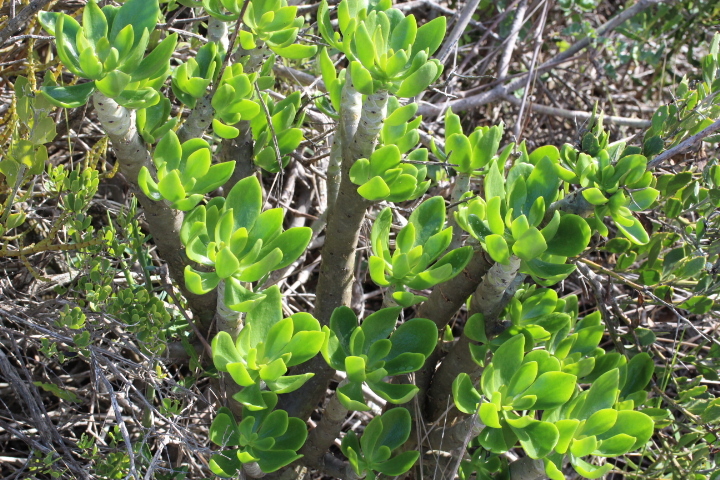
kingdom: Plantae
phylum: Tracheophyta
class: Magnoliopsida
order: Saxifragales
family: Crassulaceae
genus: Tylecodon
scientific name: Tylecodon paniculatus
